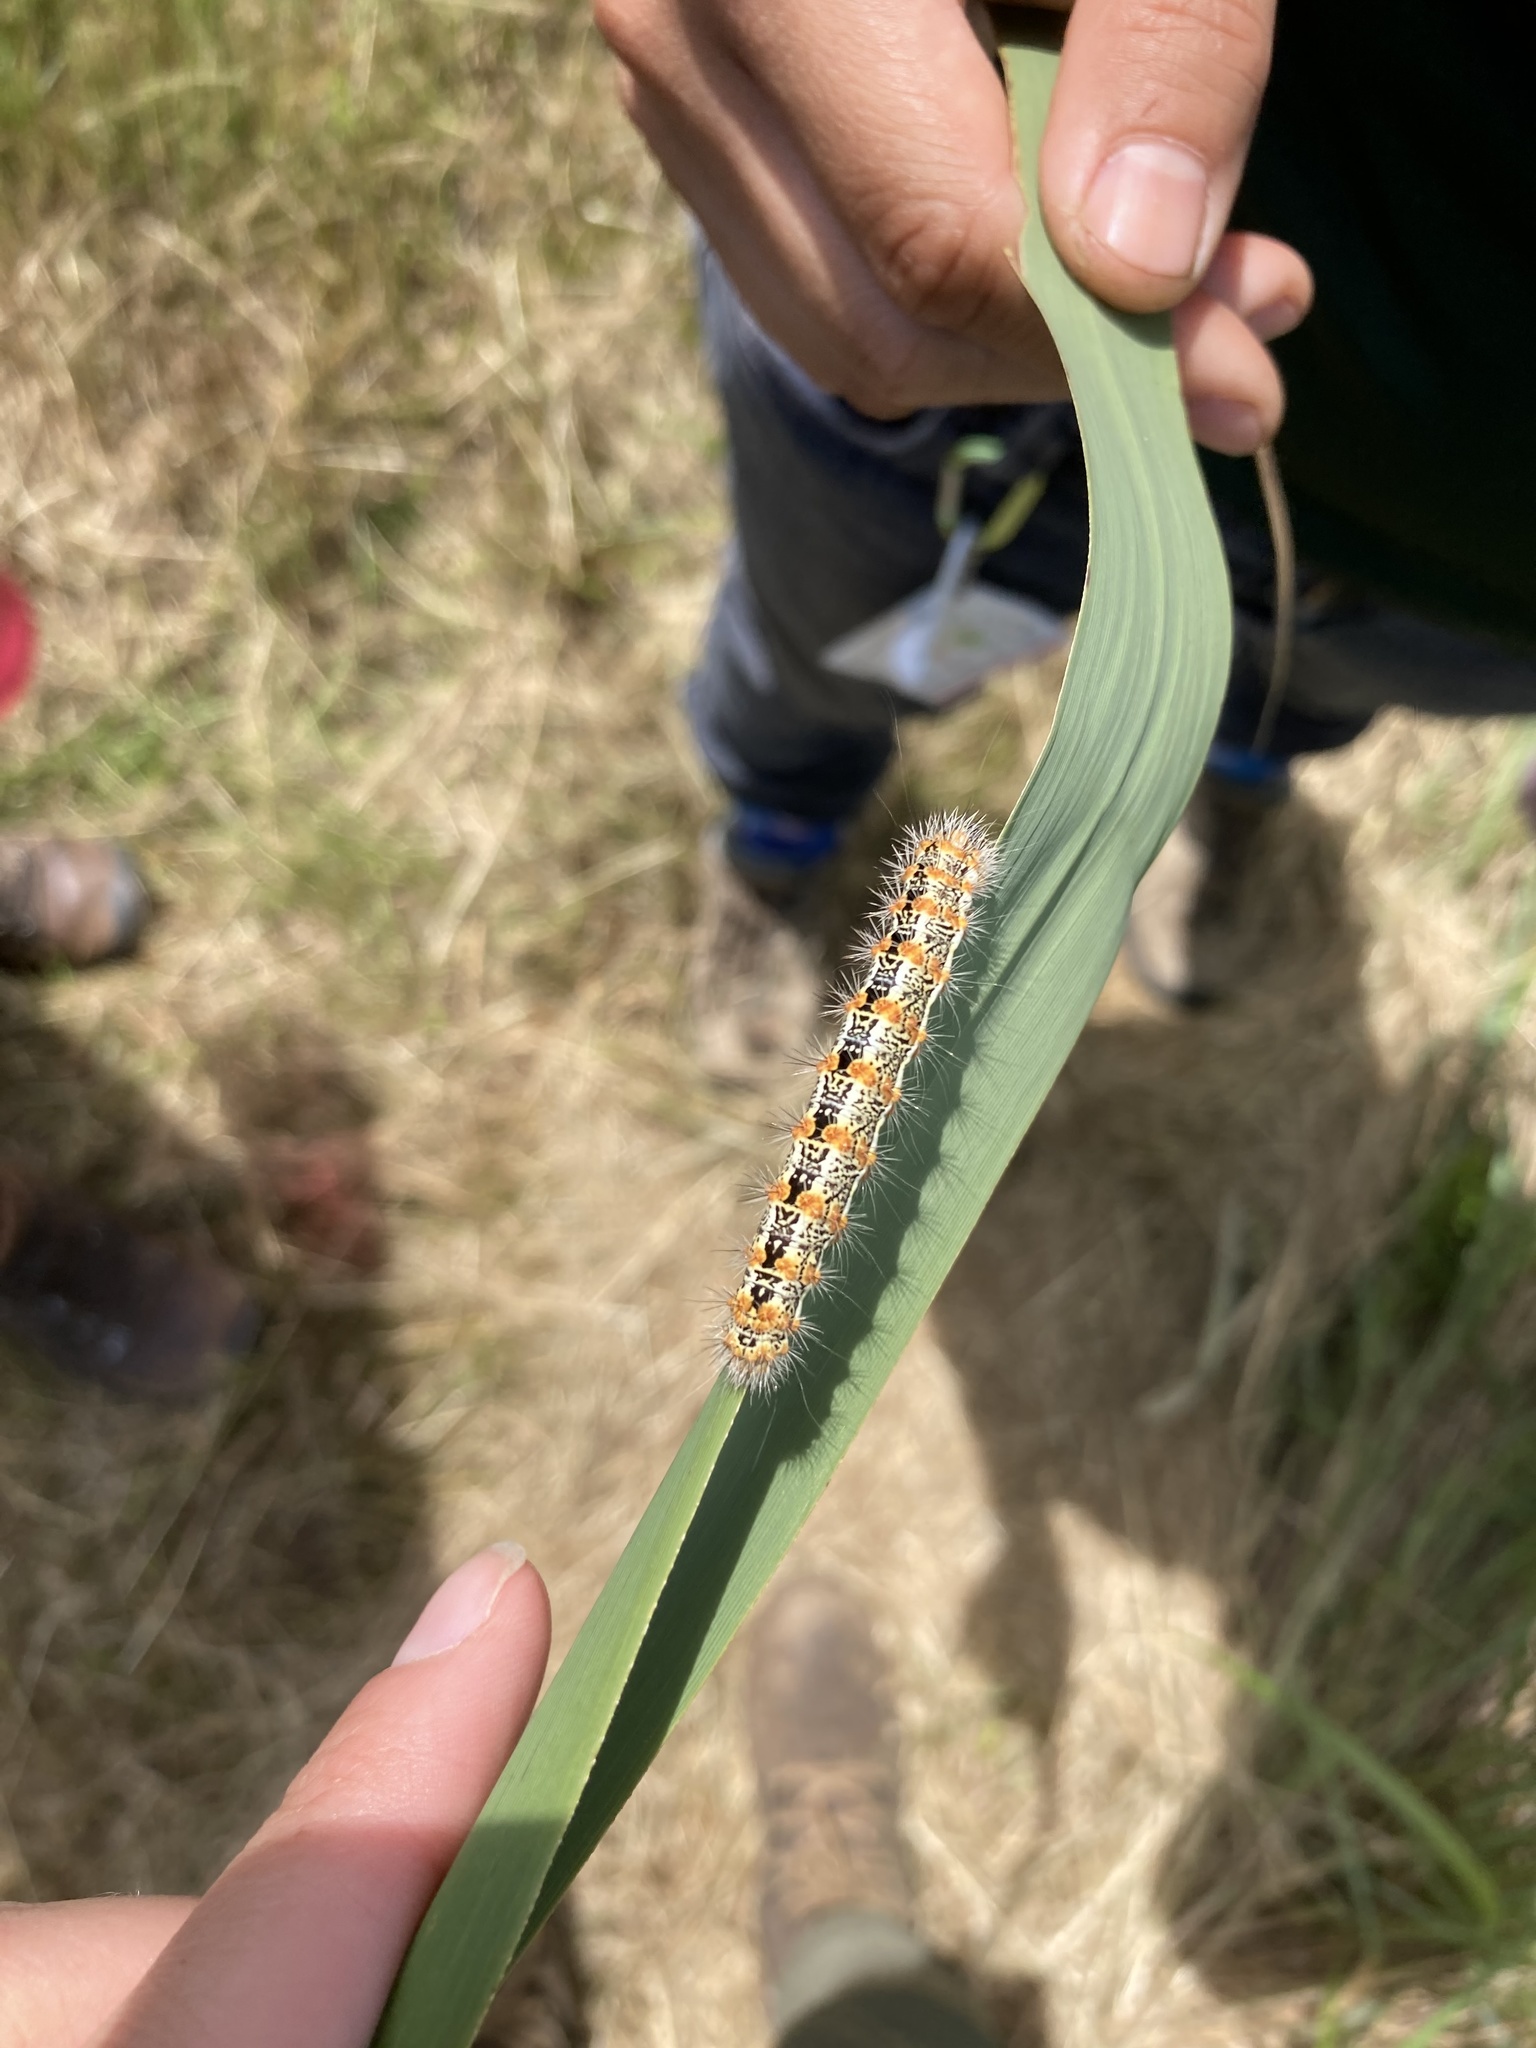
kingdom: Animalia
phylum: Arthropoda
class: Insecta
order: Lepidoptera
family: Noctuidae
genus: Acronicta
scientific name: Acronicta insularis
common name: Henry's marsh moth
